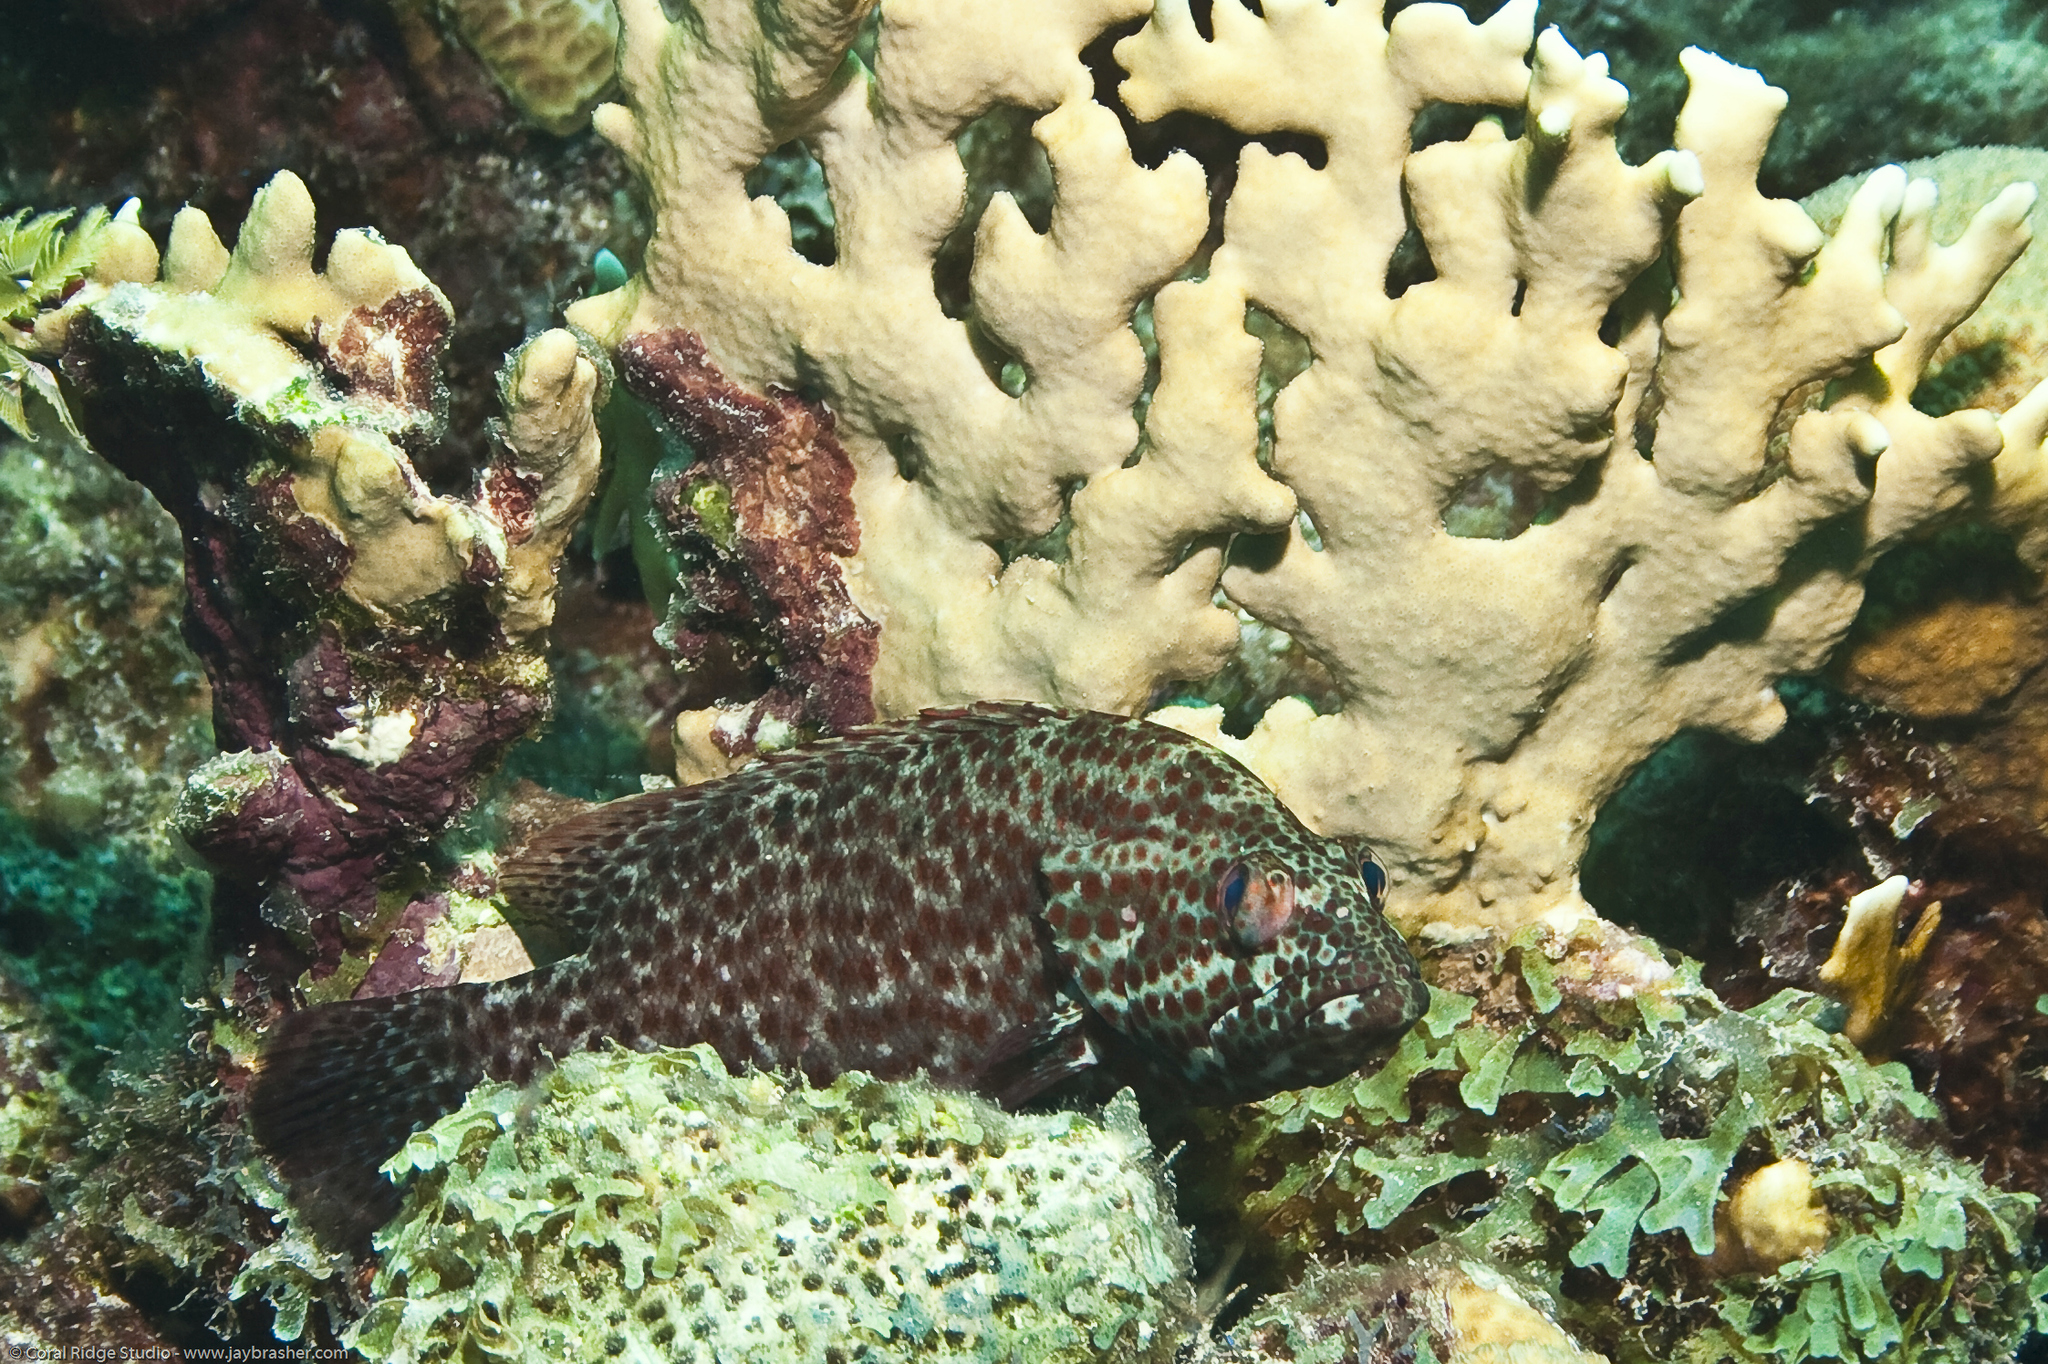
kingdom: Animalia
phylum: Chordata
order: Perciformes
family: Serranidae
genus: Cephalopholis
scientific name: Cephalopholis cruentata
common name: Graysby
